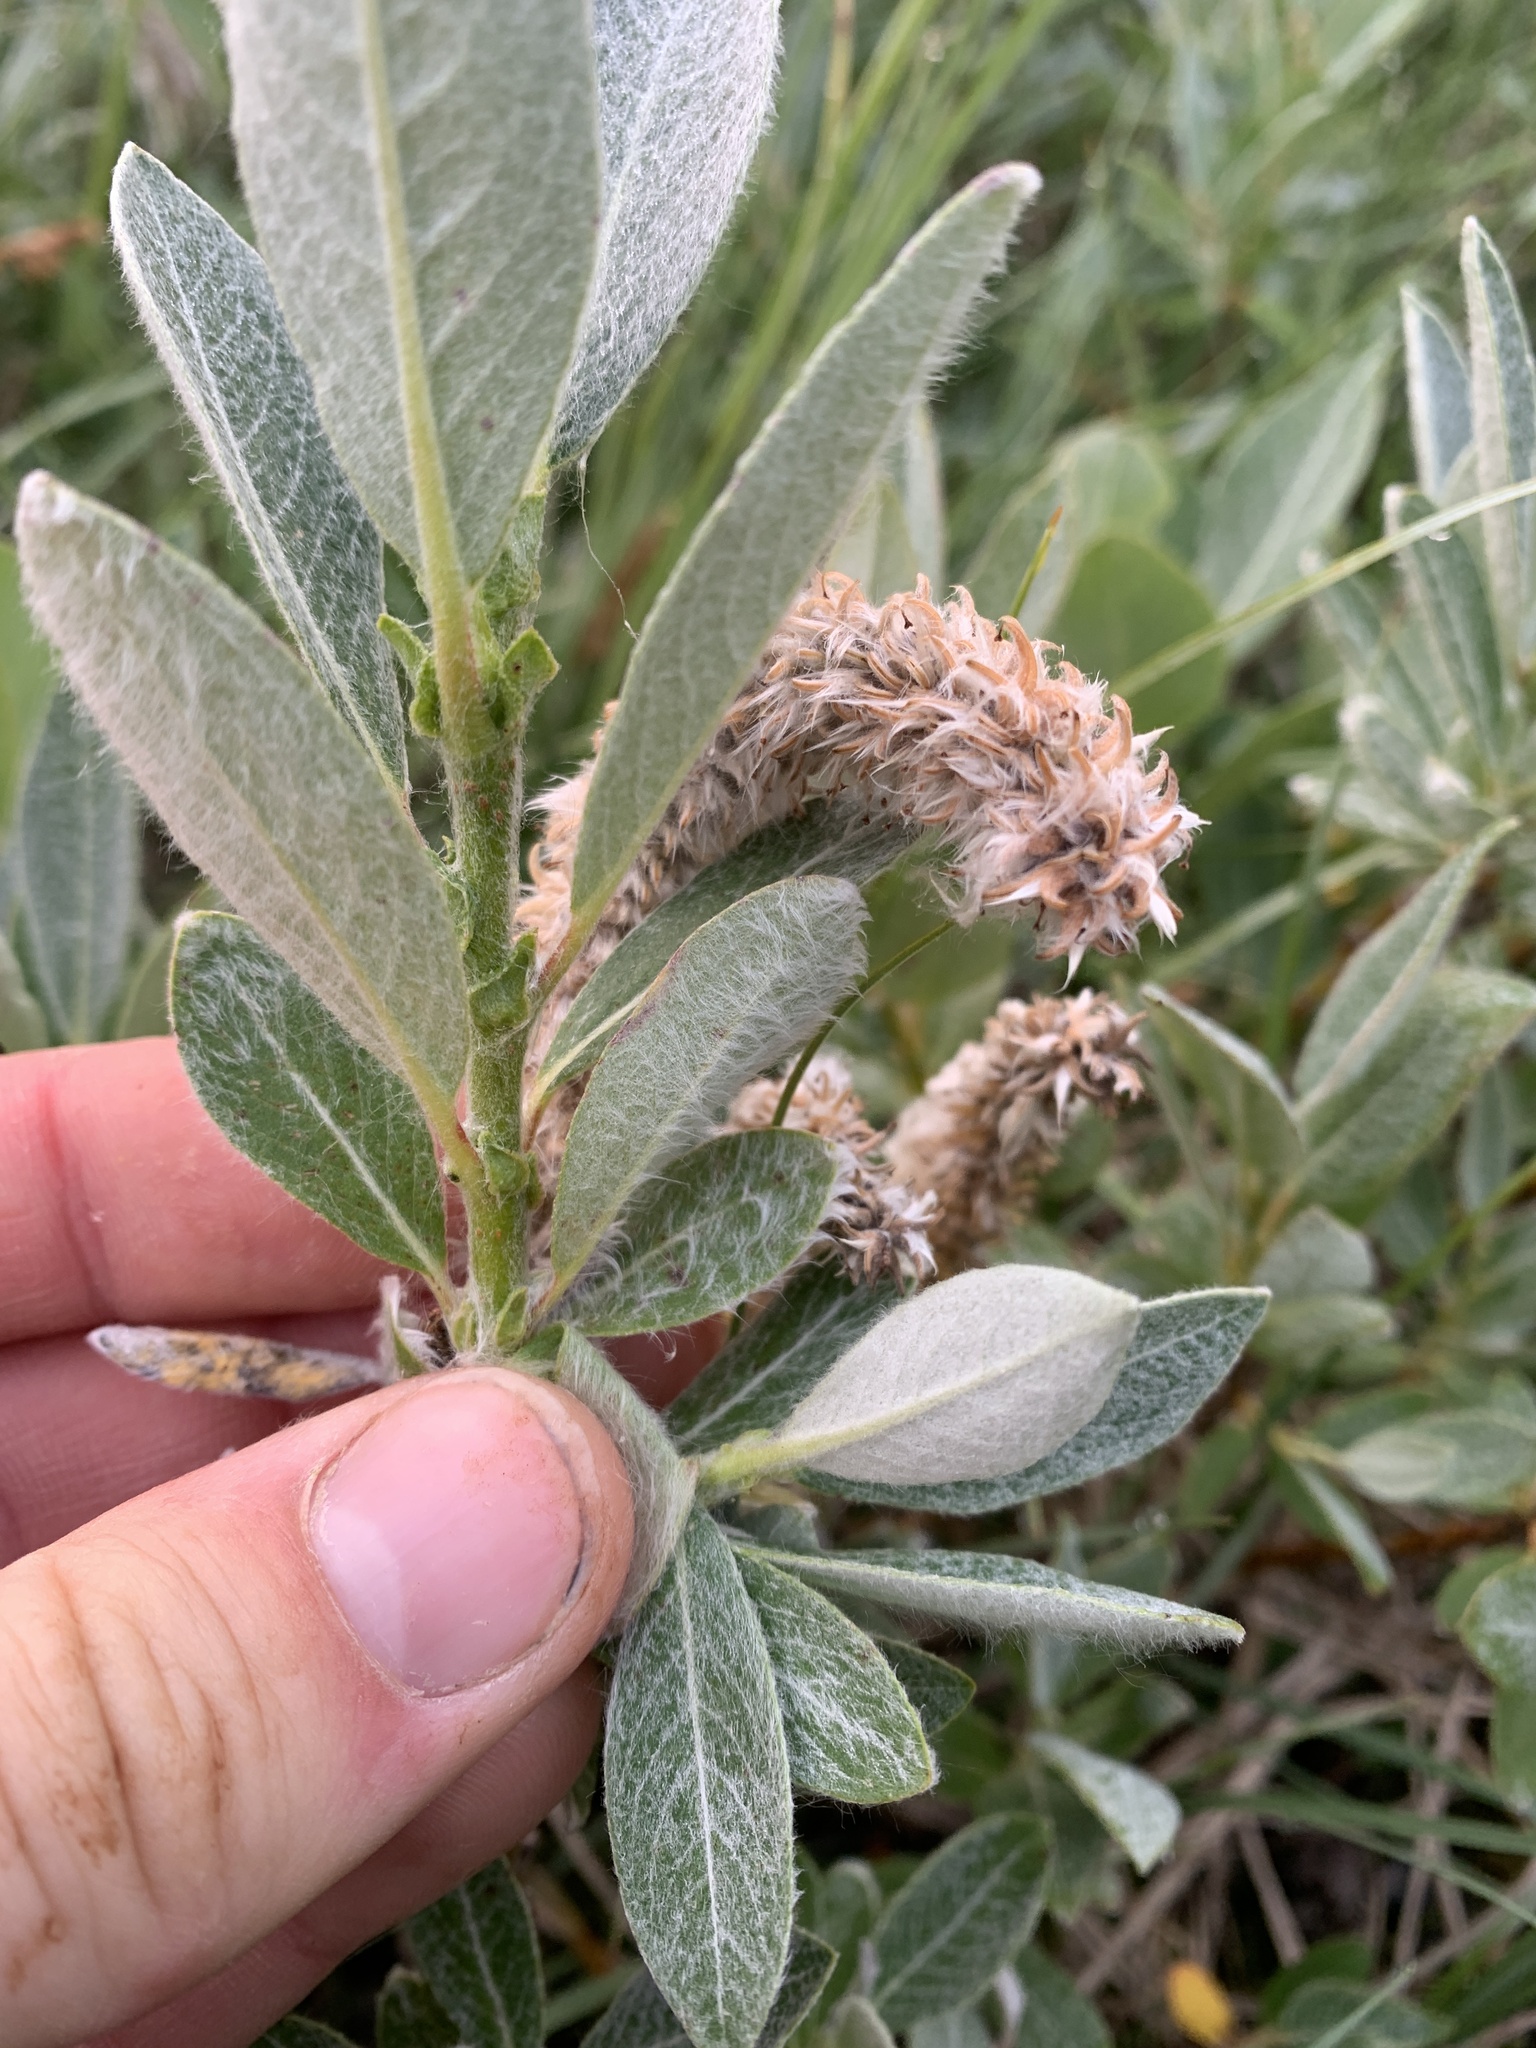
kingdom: Plantae
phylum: Tracheophyta
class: Magnoliopsida
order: Malpighiales
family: Salicaceae
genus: Salix
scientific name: Salix barrattiana
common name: Barratt's willow
